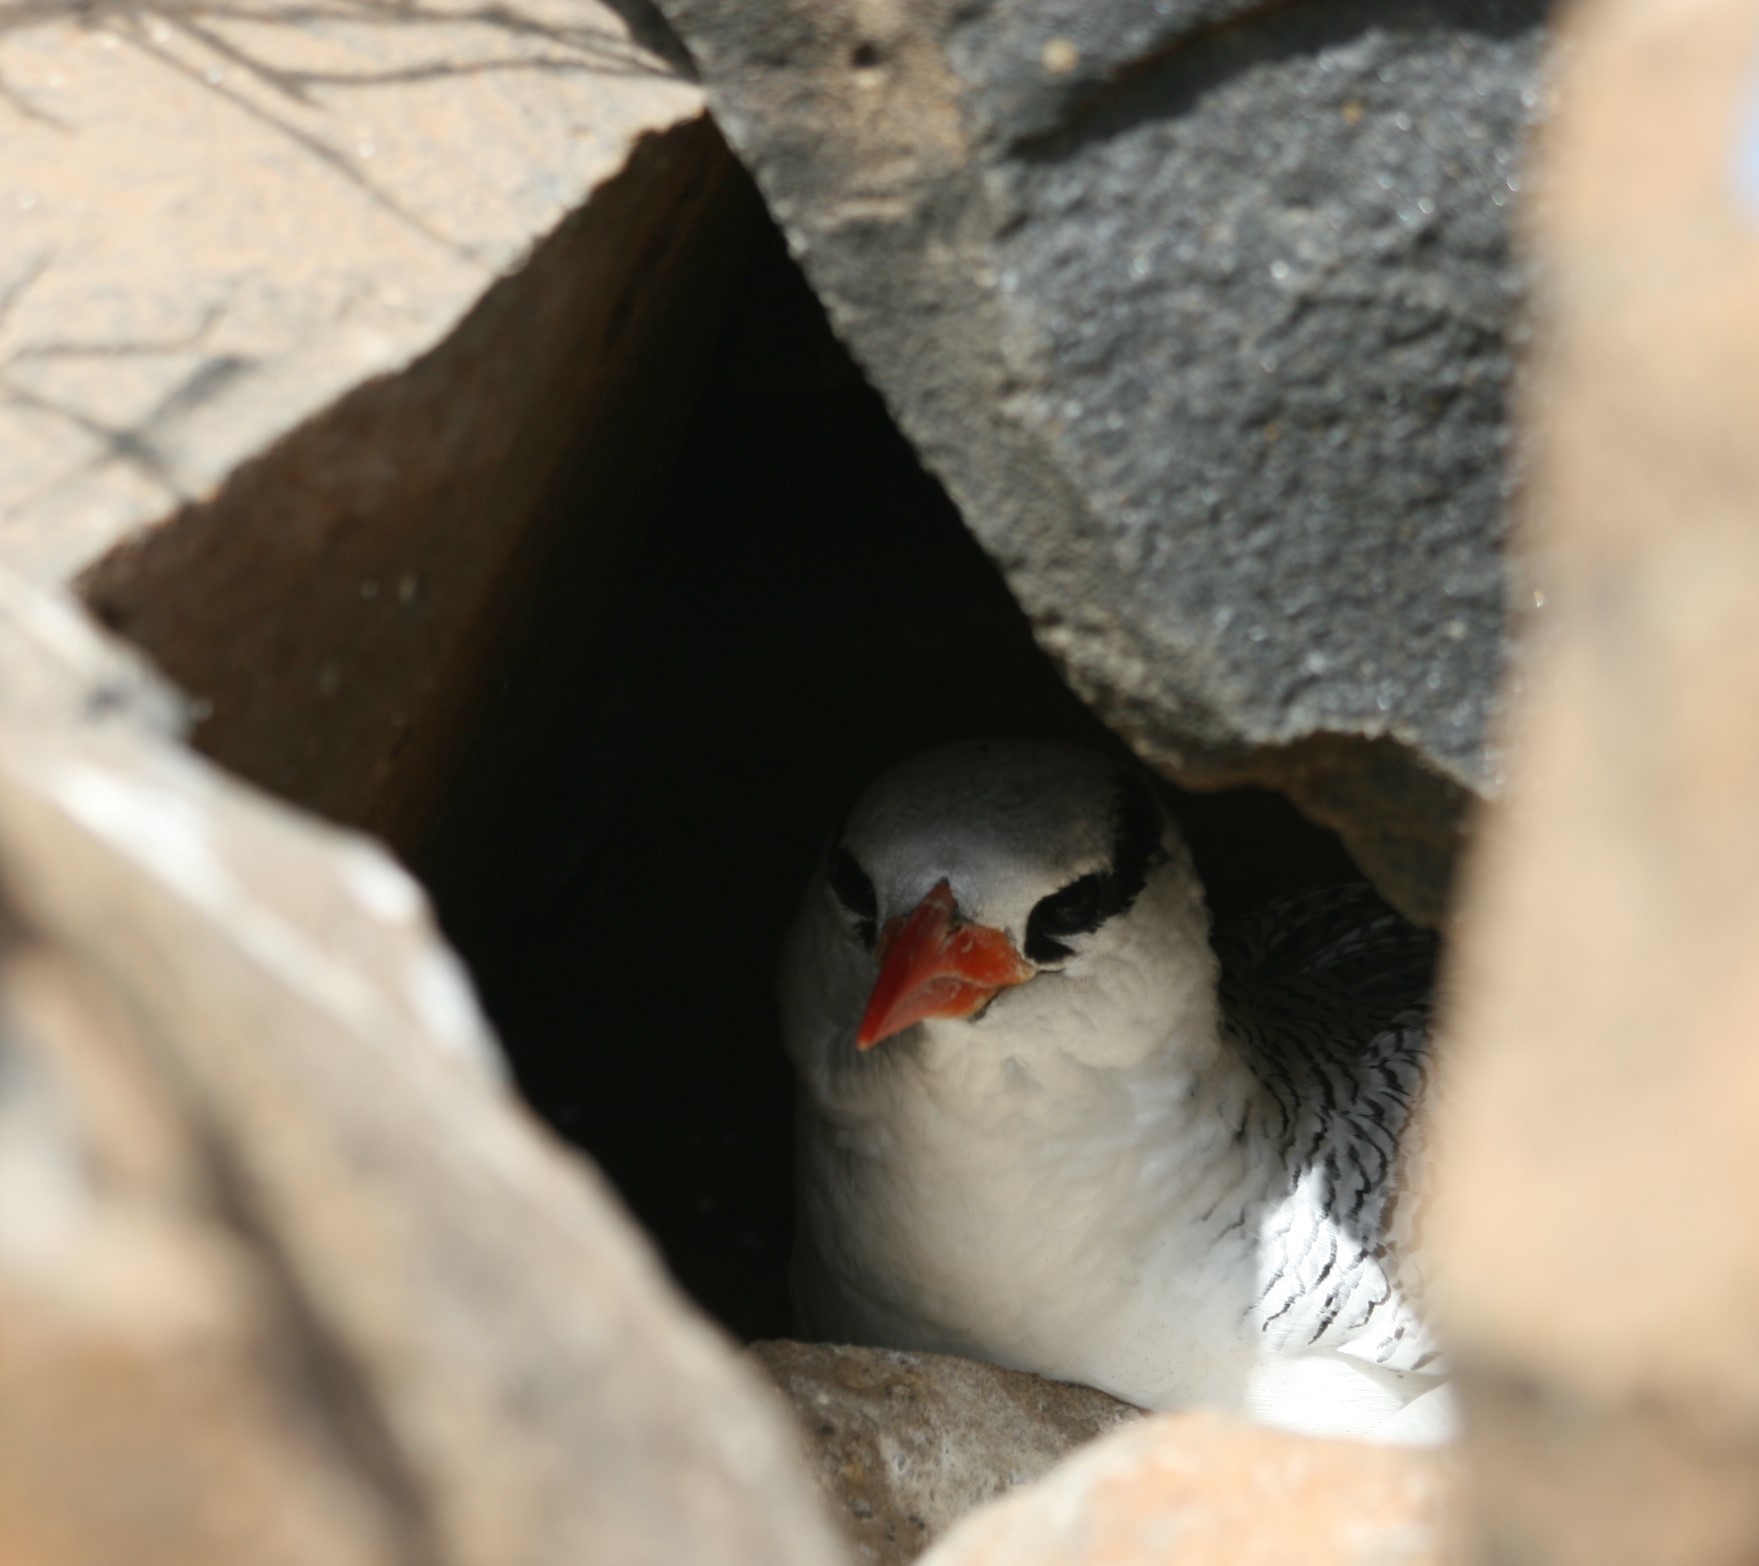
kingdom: Animalia
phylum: Chordata
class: Aves
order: Phaethontiformes
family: Phaethontidae
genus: Phaethon
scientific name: Phaethon aethereus
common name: Red-billed tropicbird
